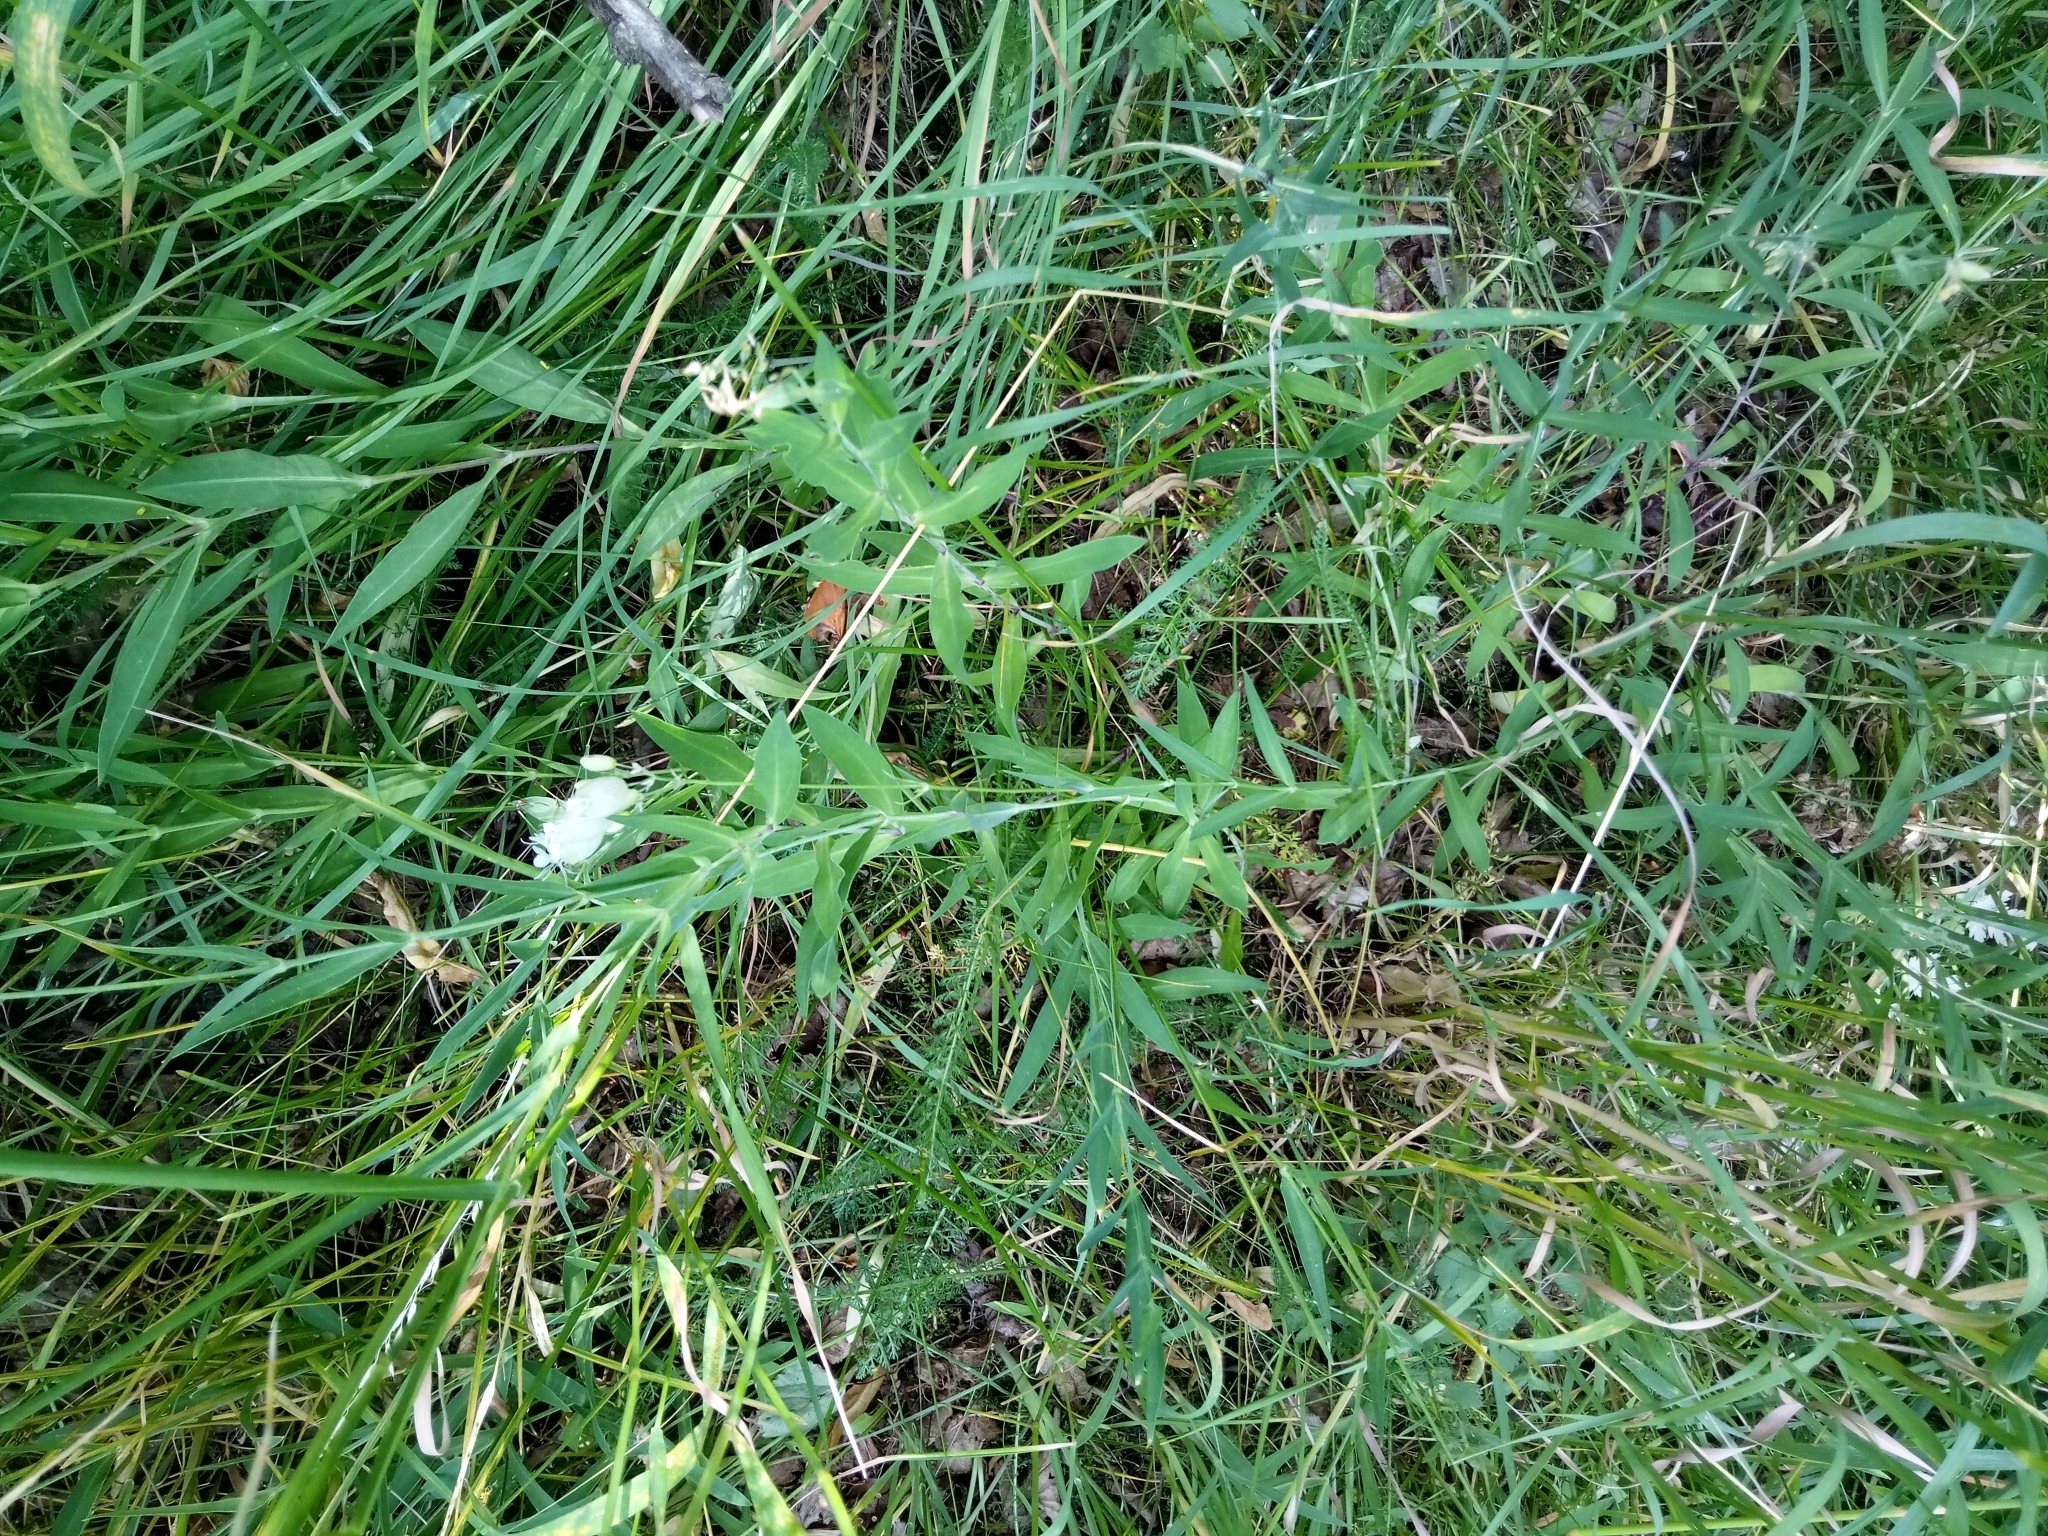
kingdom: Plantae
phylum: Tracheophyta
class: Magnoliopsida
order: Caryophyllales
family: Caryophyllaceae
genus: Silene
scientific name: Silene vulgaris
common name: Bladder campion
